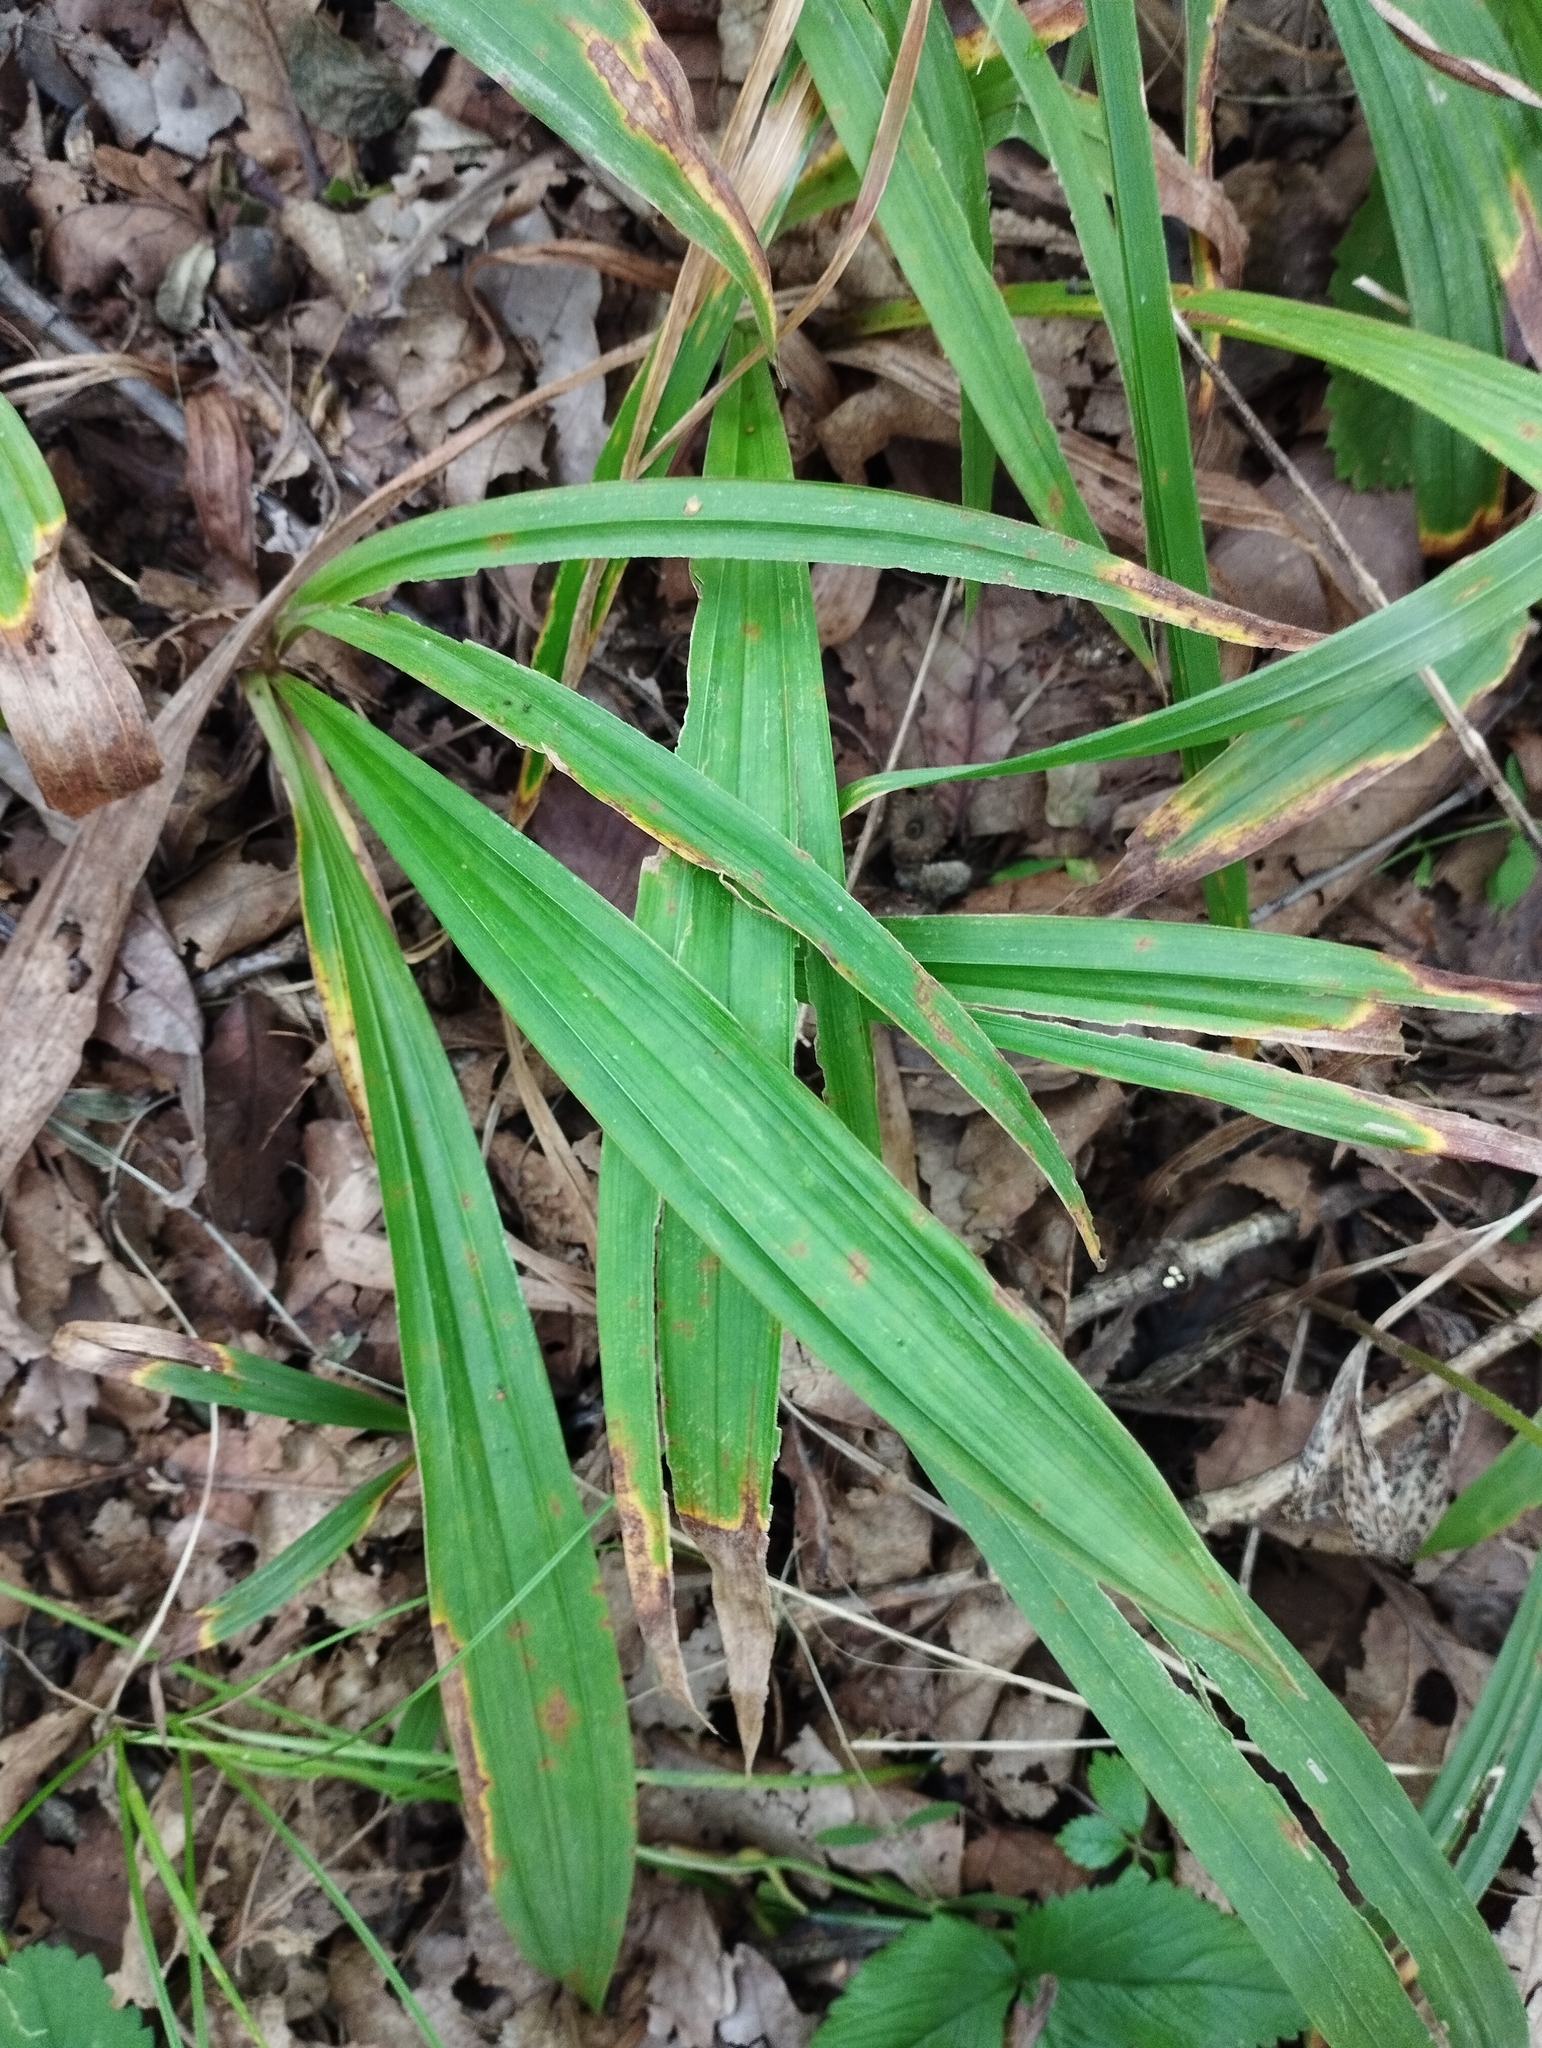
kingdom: Plantae
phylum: Tracheophyta
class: Liliopsida
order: Poales
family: Cyperaceae
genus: Carex
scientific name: Carex siderosticta
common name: Broadleaf sedge
